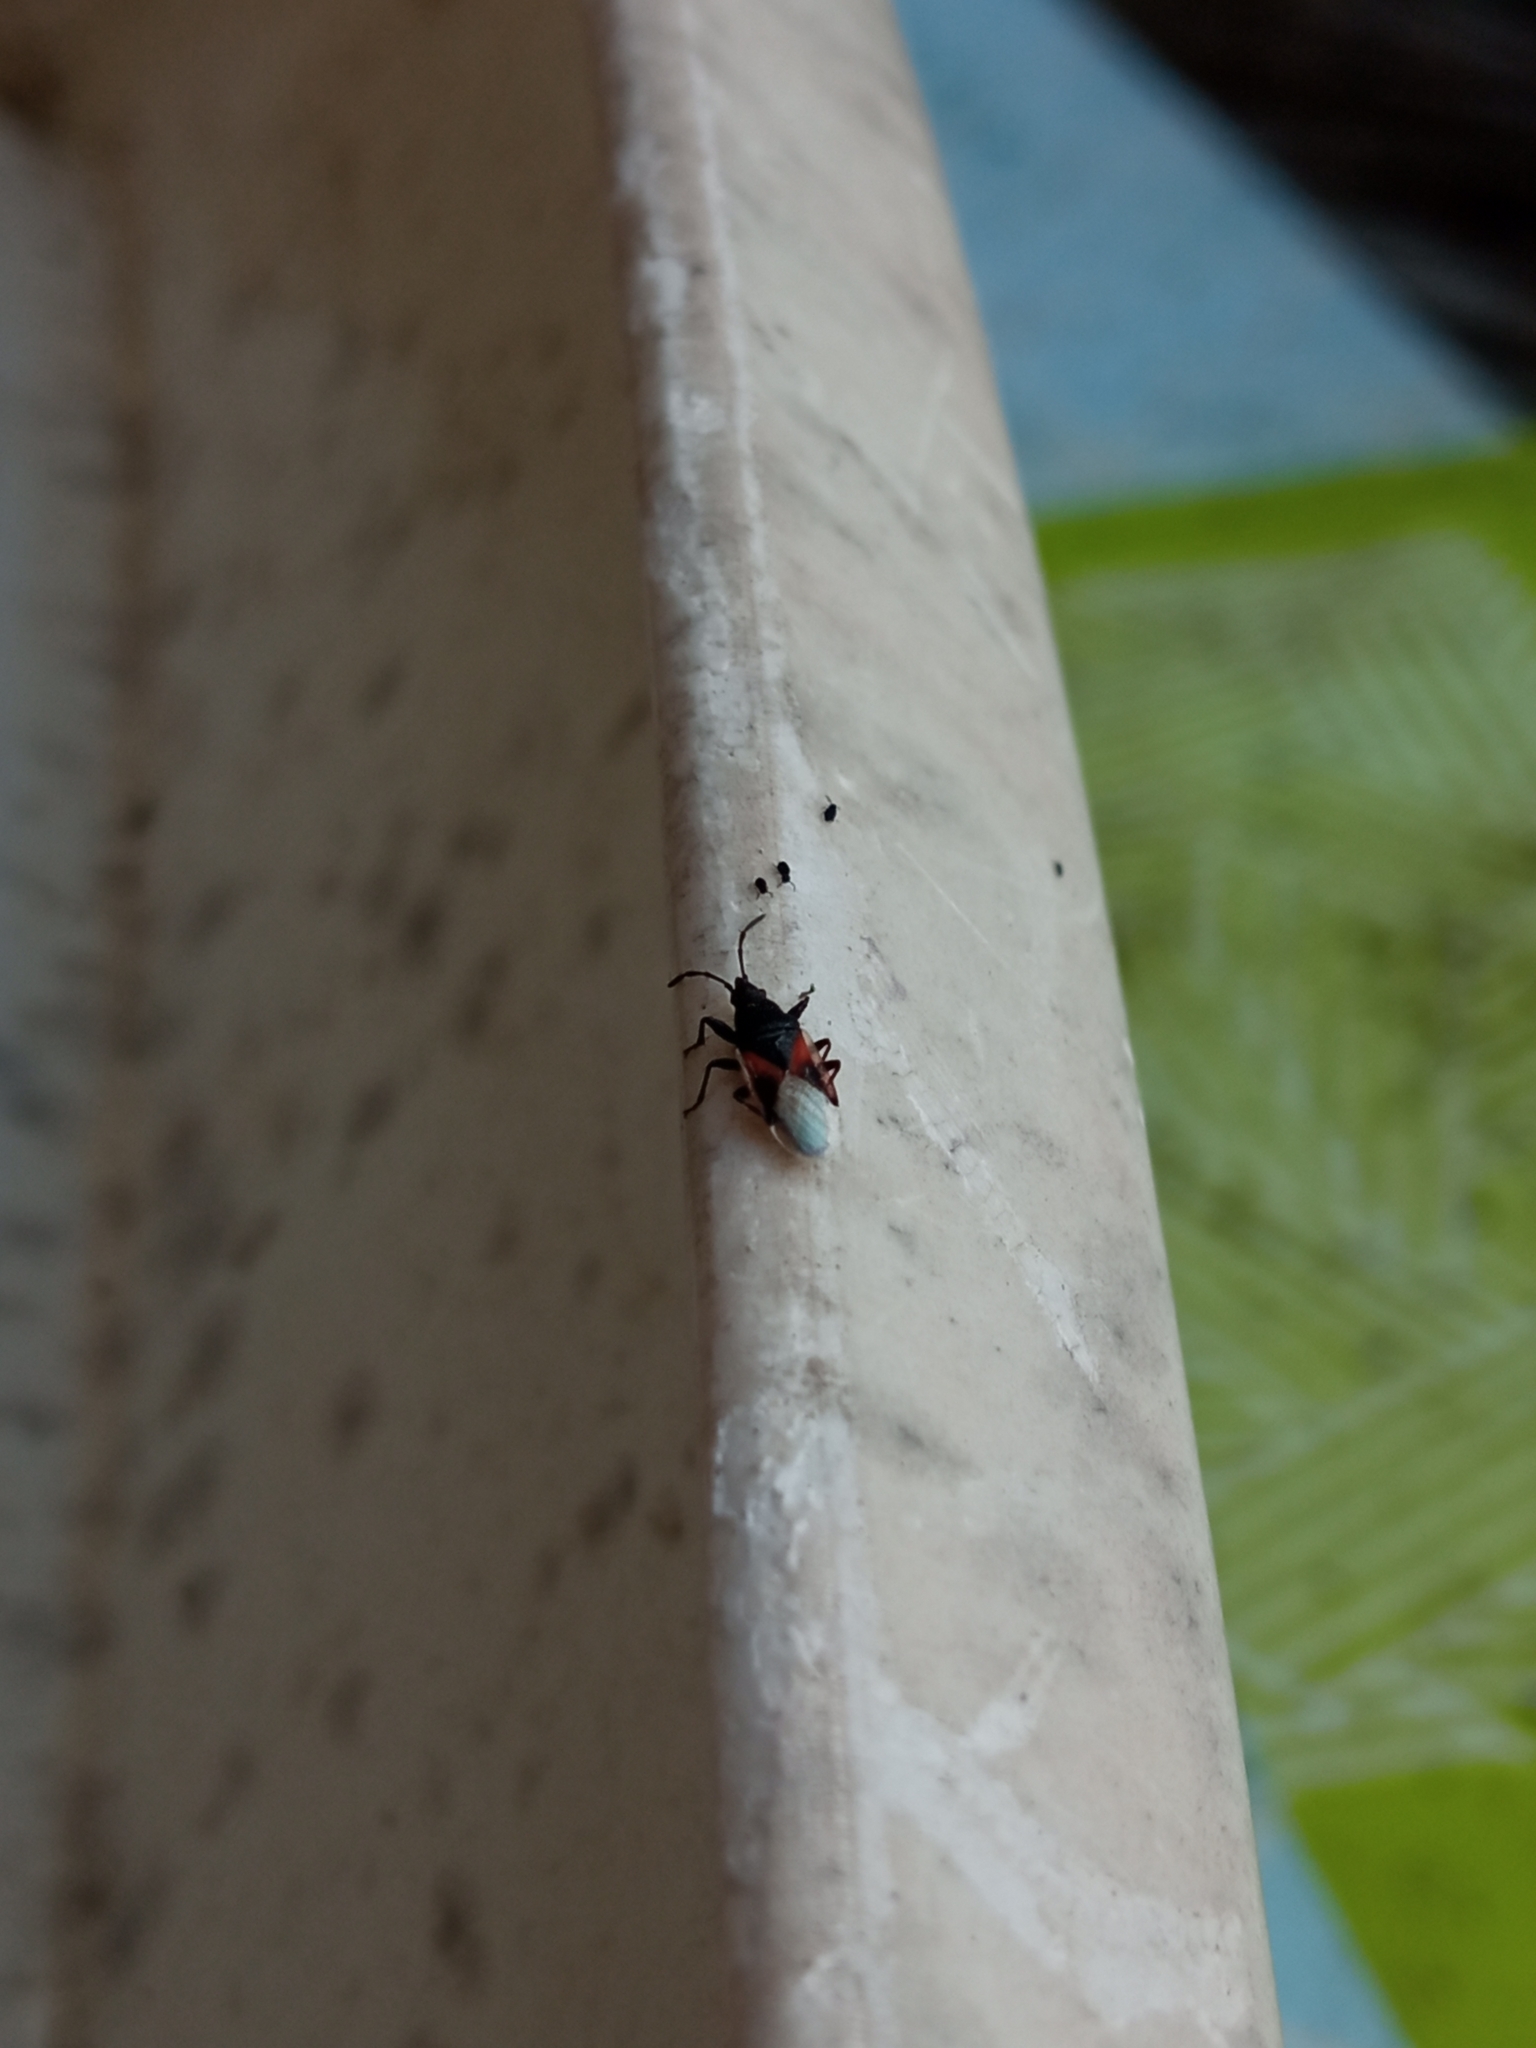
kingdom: Animalia
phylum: Arthropoda
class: Insecta
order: Hemiptera
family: Oxycarenidae
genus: Oxycarenus
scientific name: Oxycarenus lavaterae
